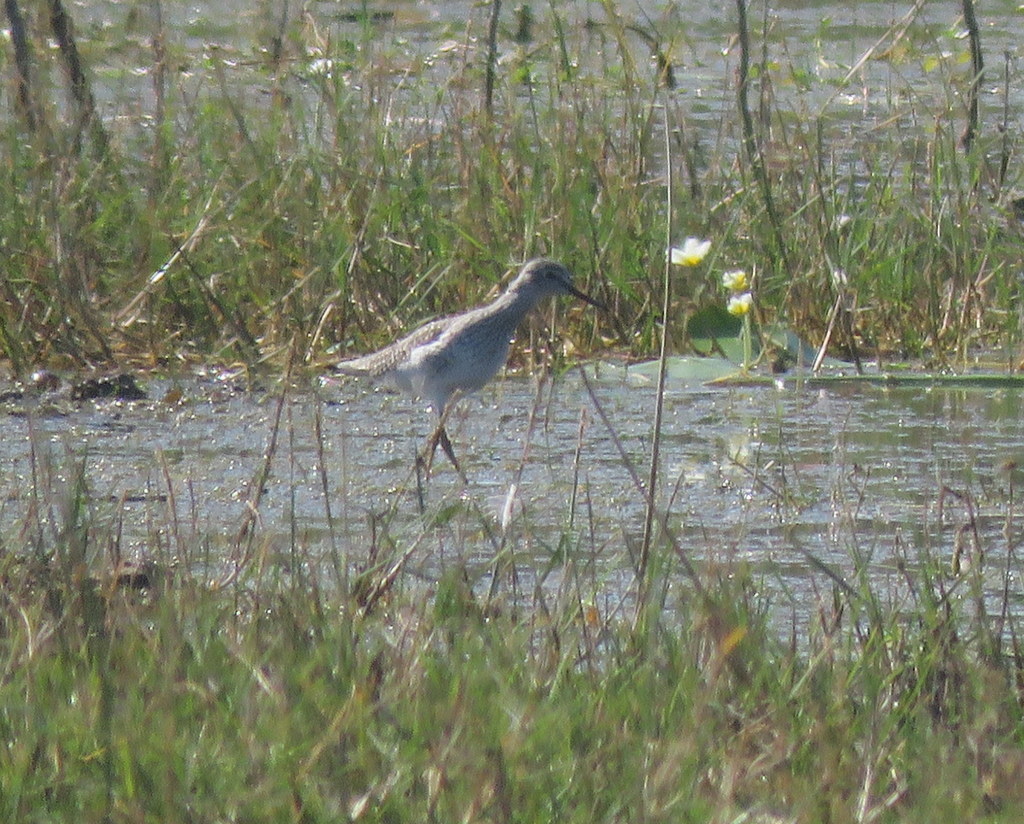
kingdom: Animalia
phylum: Chordata
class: Aves
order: Charadriiformes
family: Scolopacidae
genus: Tringa
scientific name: Tringa flavipes
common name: Lesser yellowlegs
